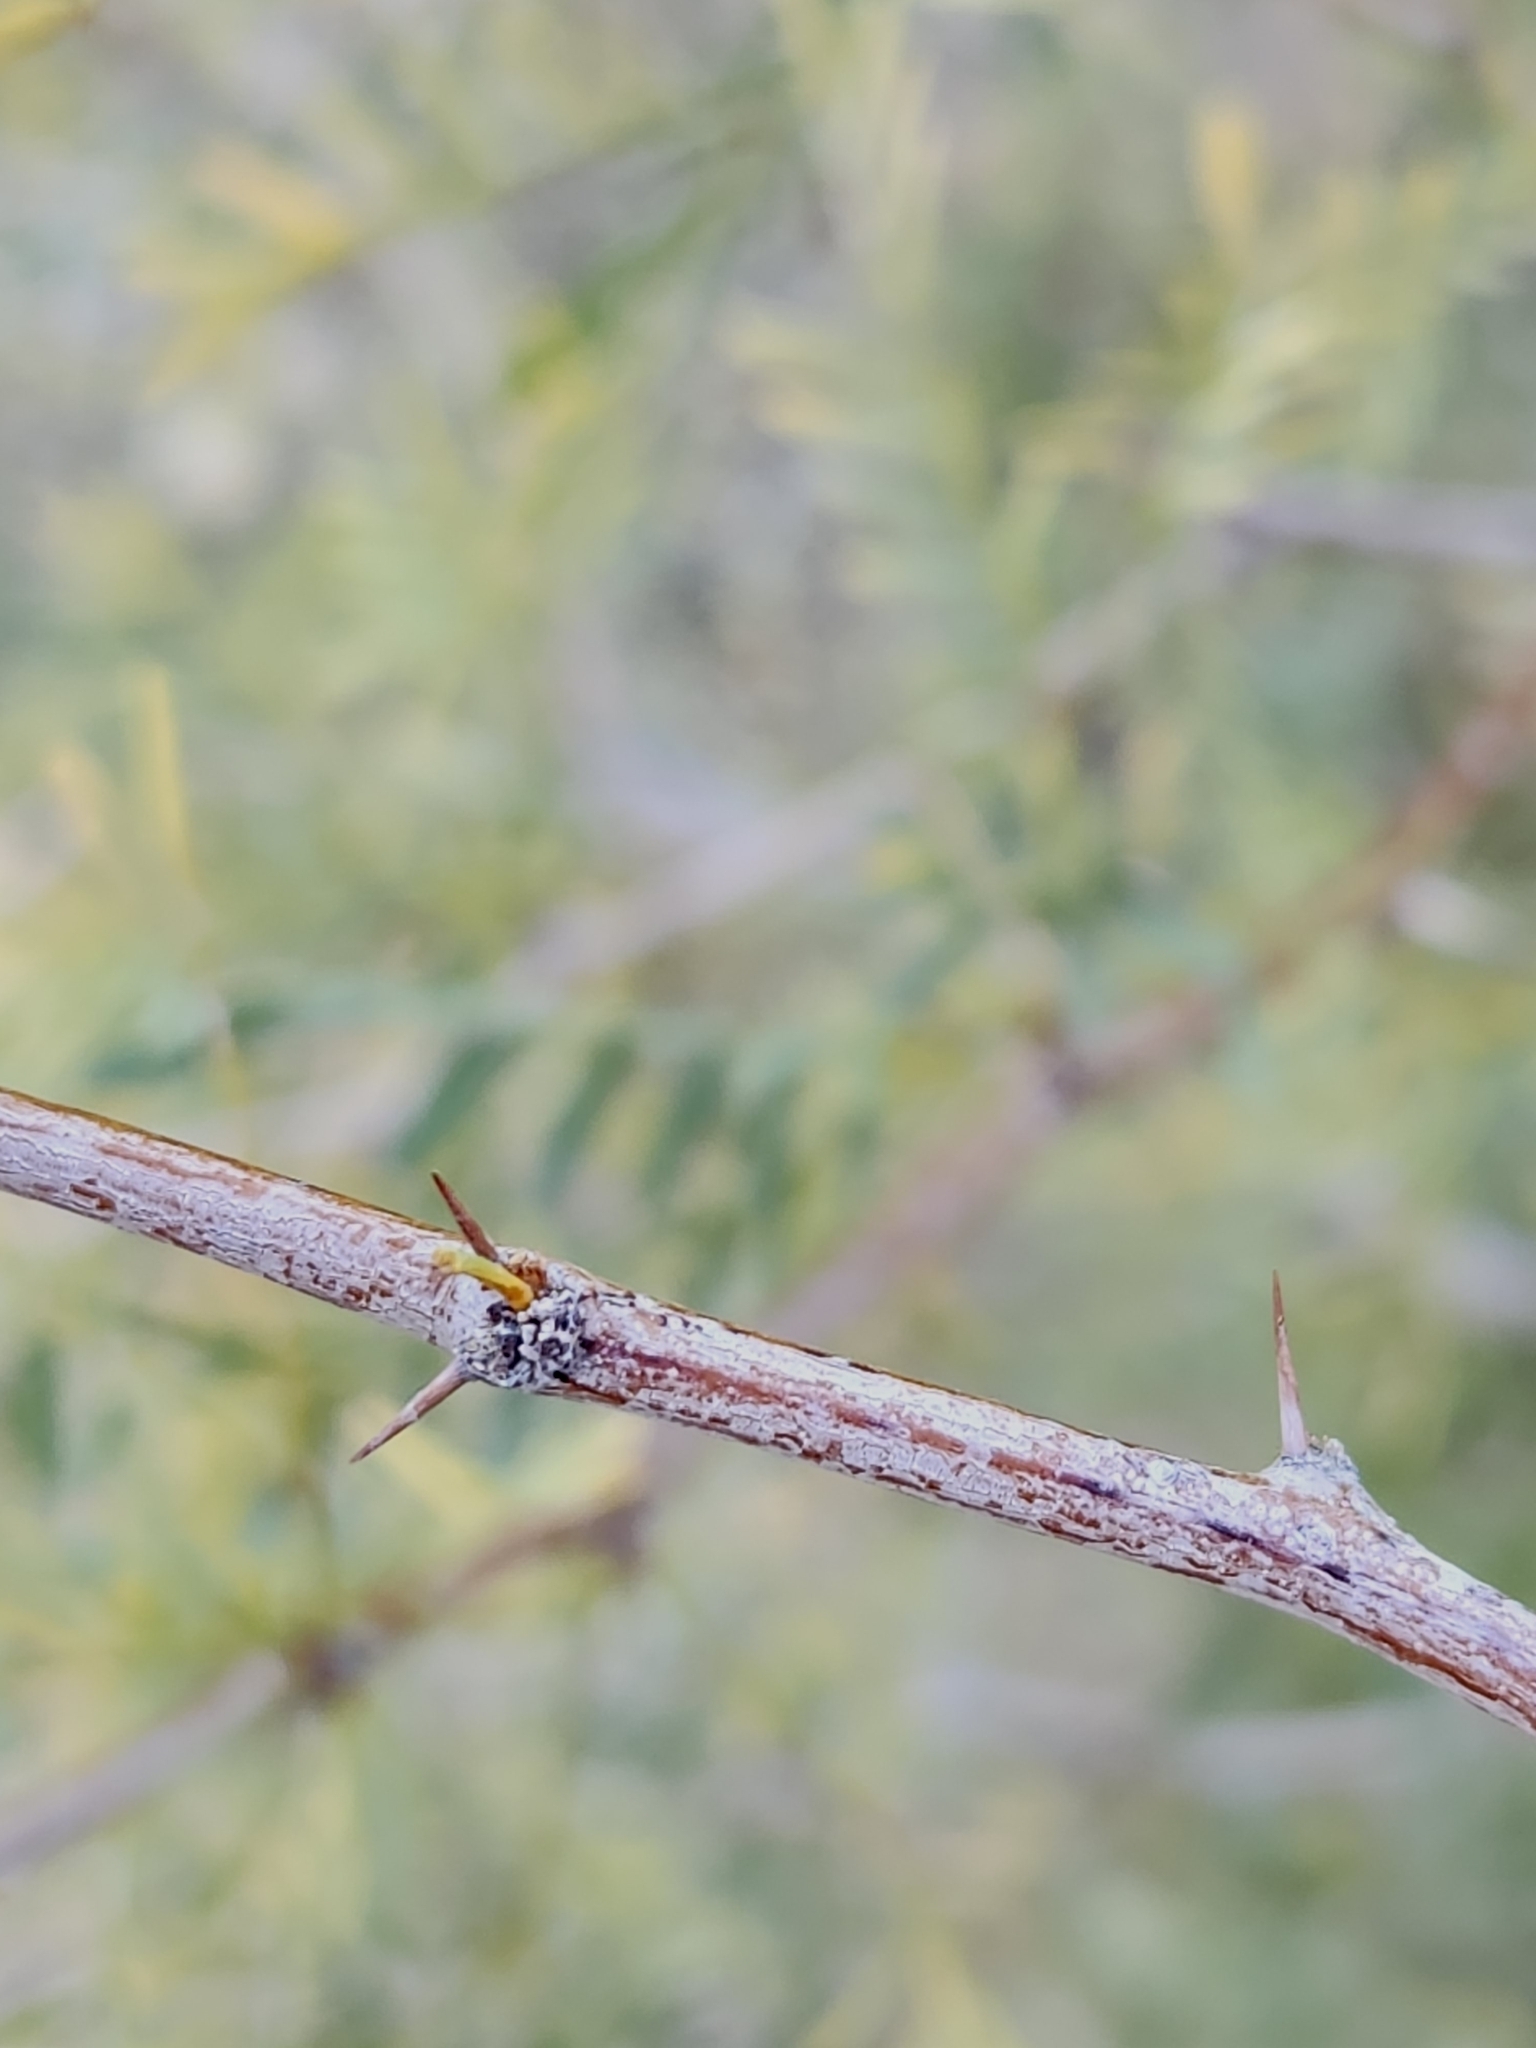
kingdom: Plantae
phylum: Tracheophyta
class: Magnoliopsida
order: Fabales
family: Fabaceae
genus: Prosopis
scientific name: Prosopis pubescens
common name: Screw-bean
